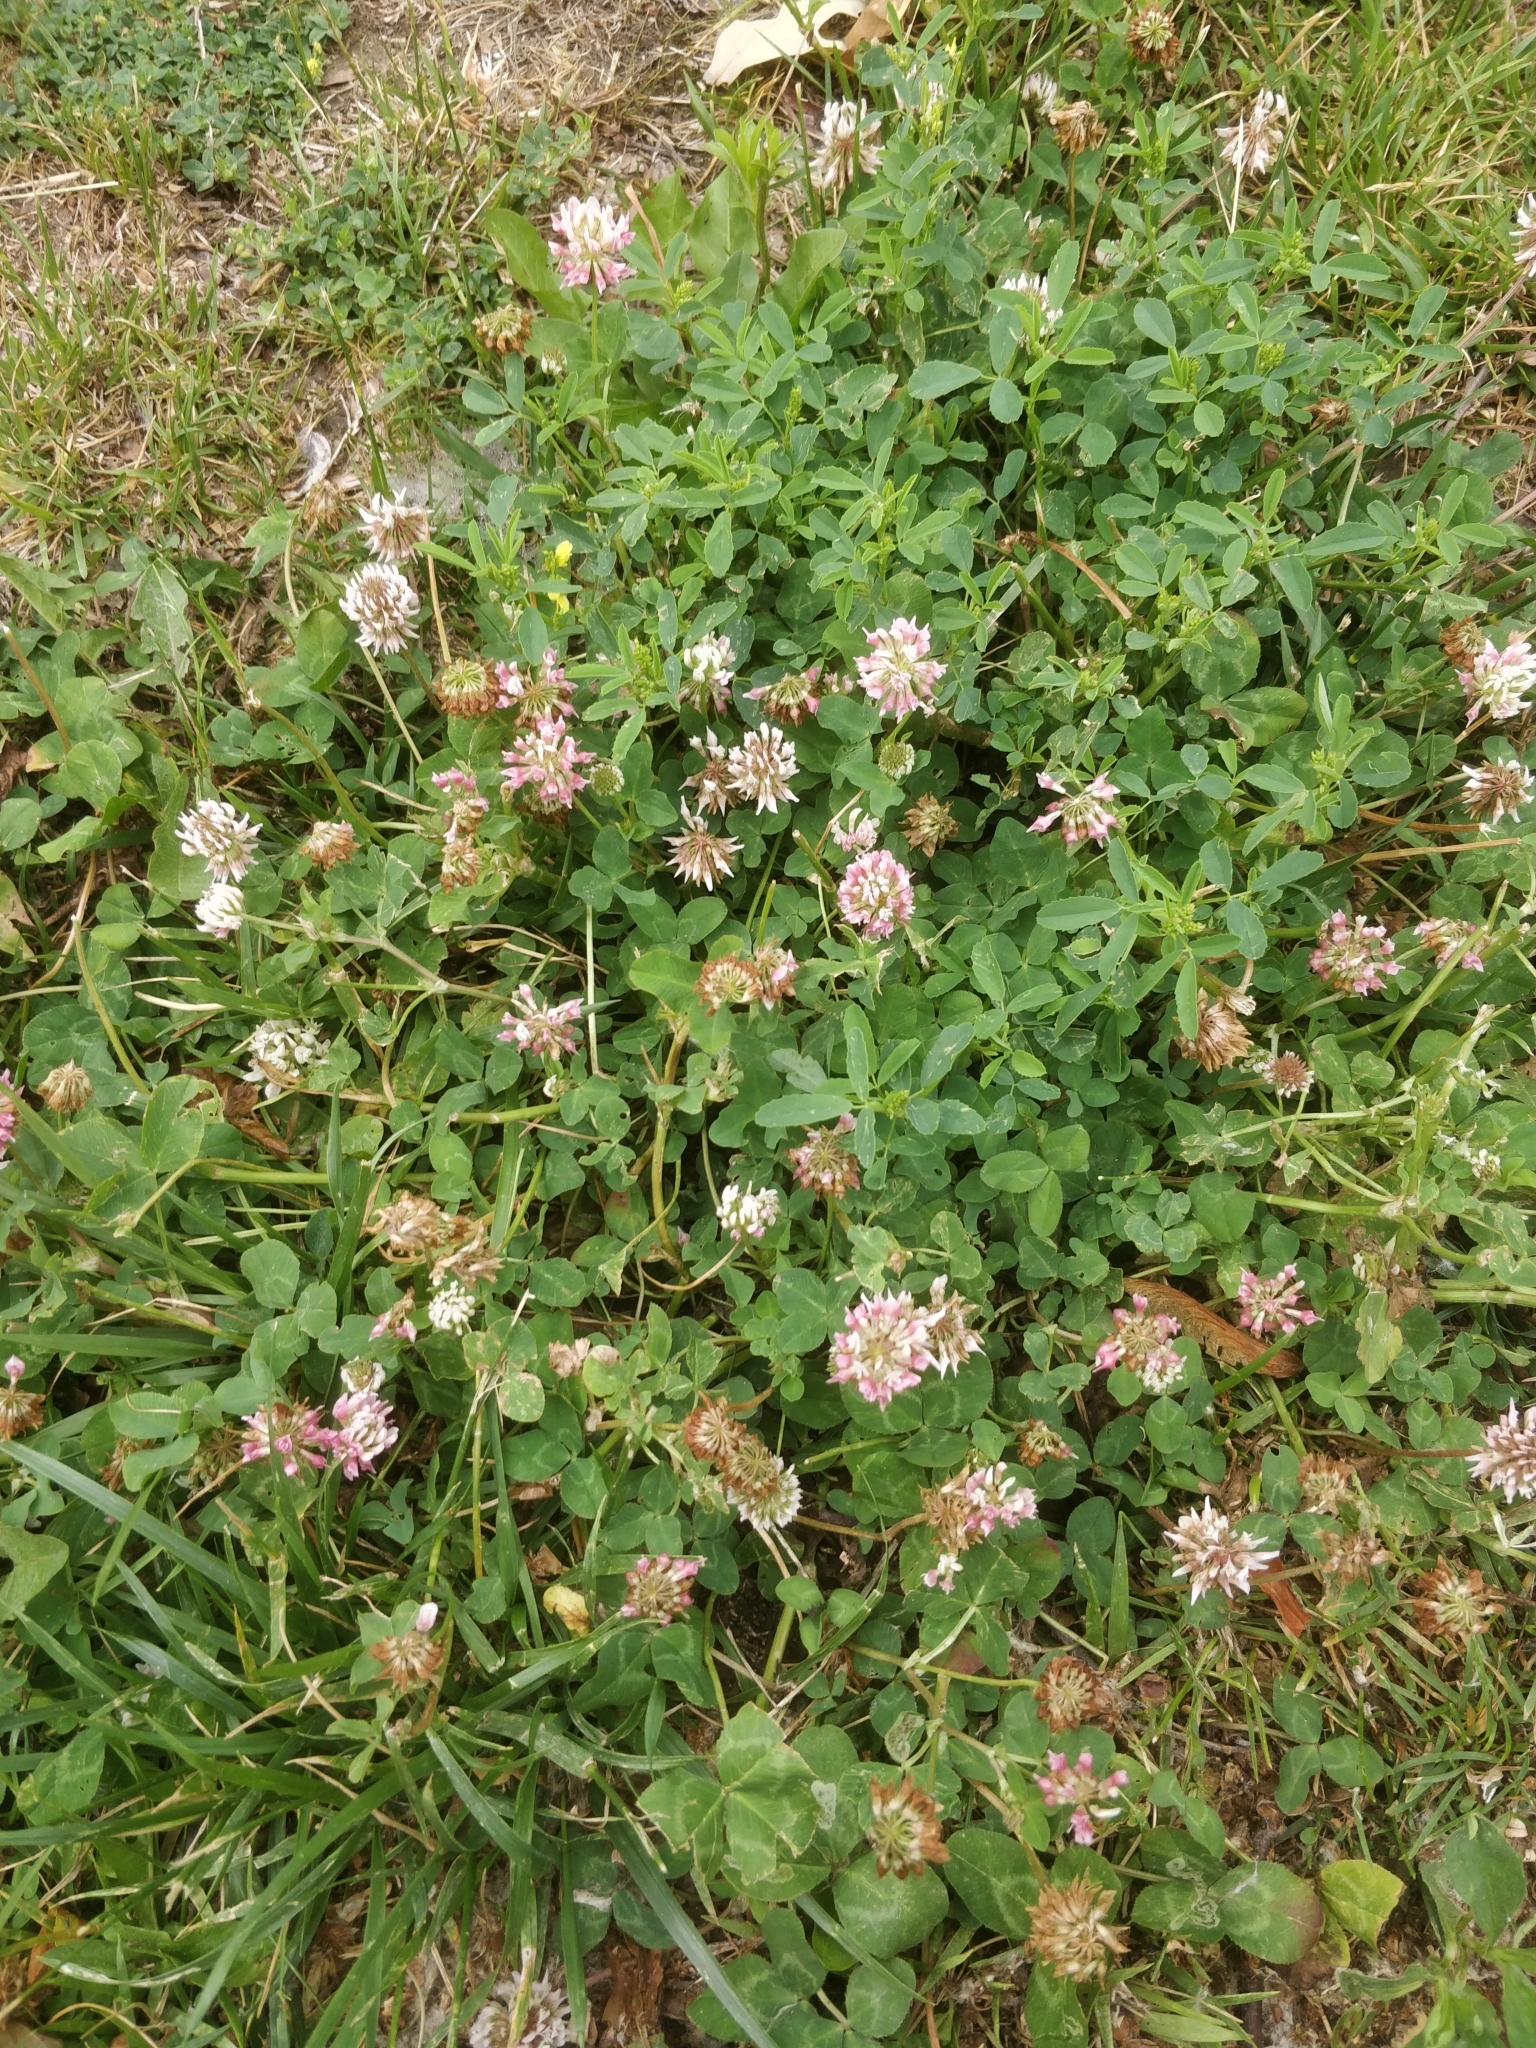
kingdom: Plantae
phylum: Tracheophyta
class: Magnoliopsida
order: Fabales
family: Fabaceae
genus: Trifolium
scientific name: Trifolium hybridum
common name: Alsike clover
